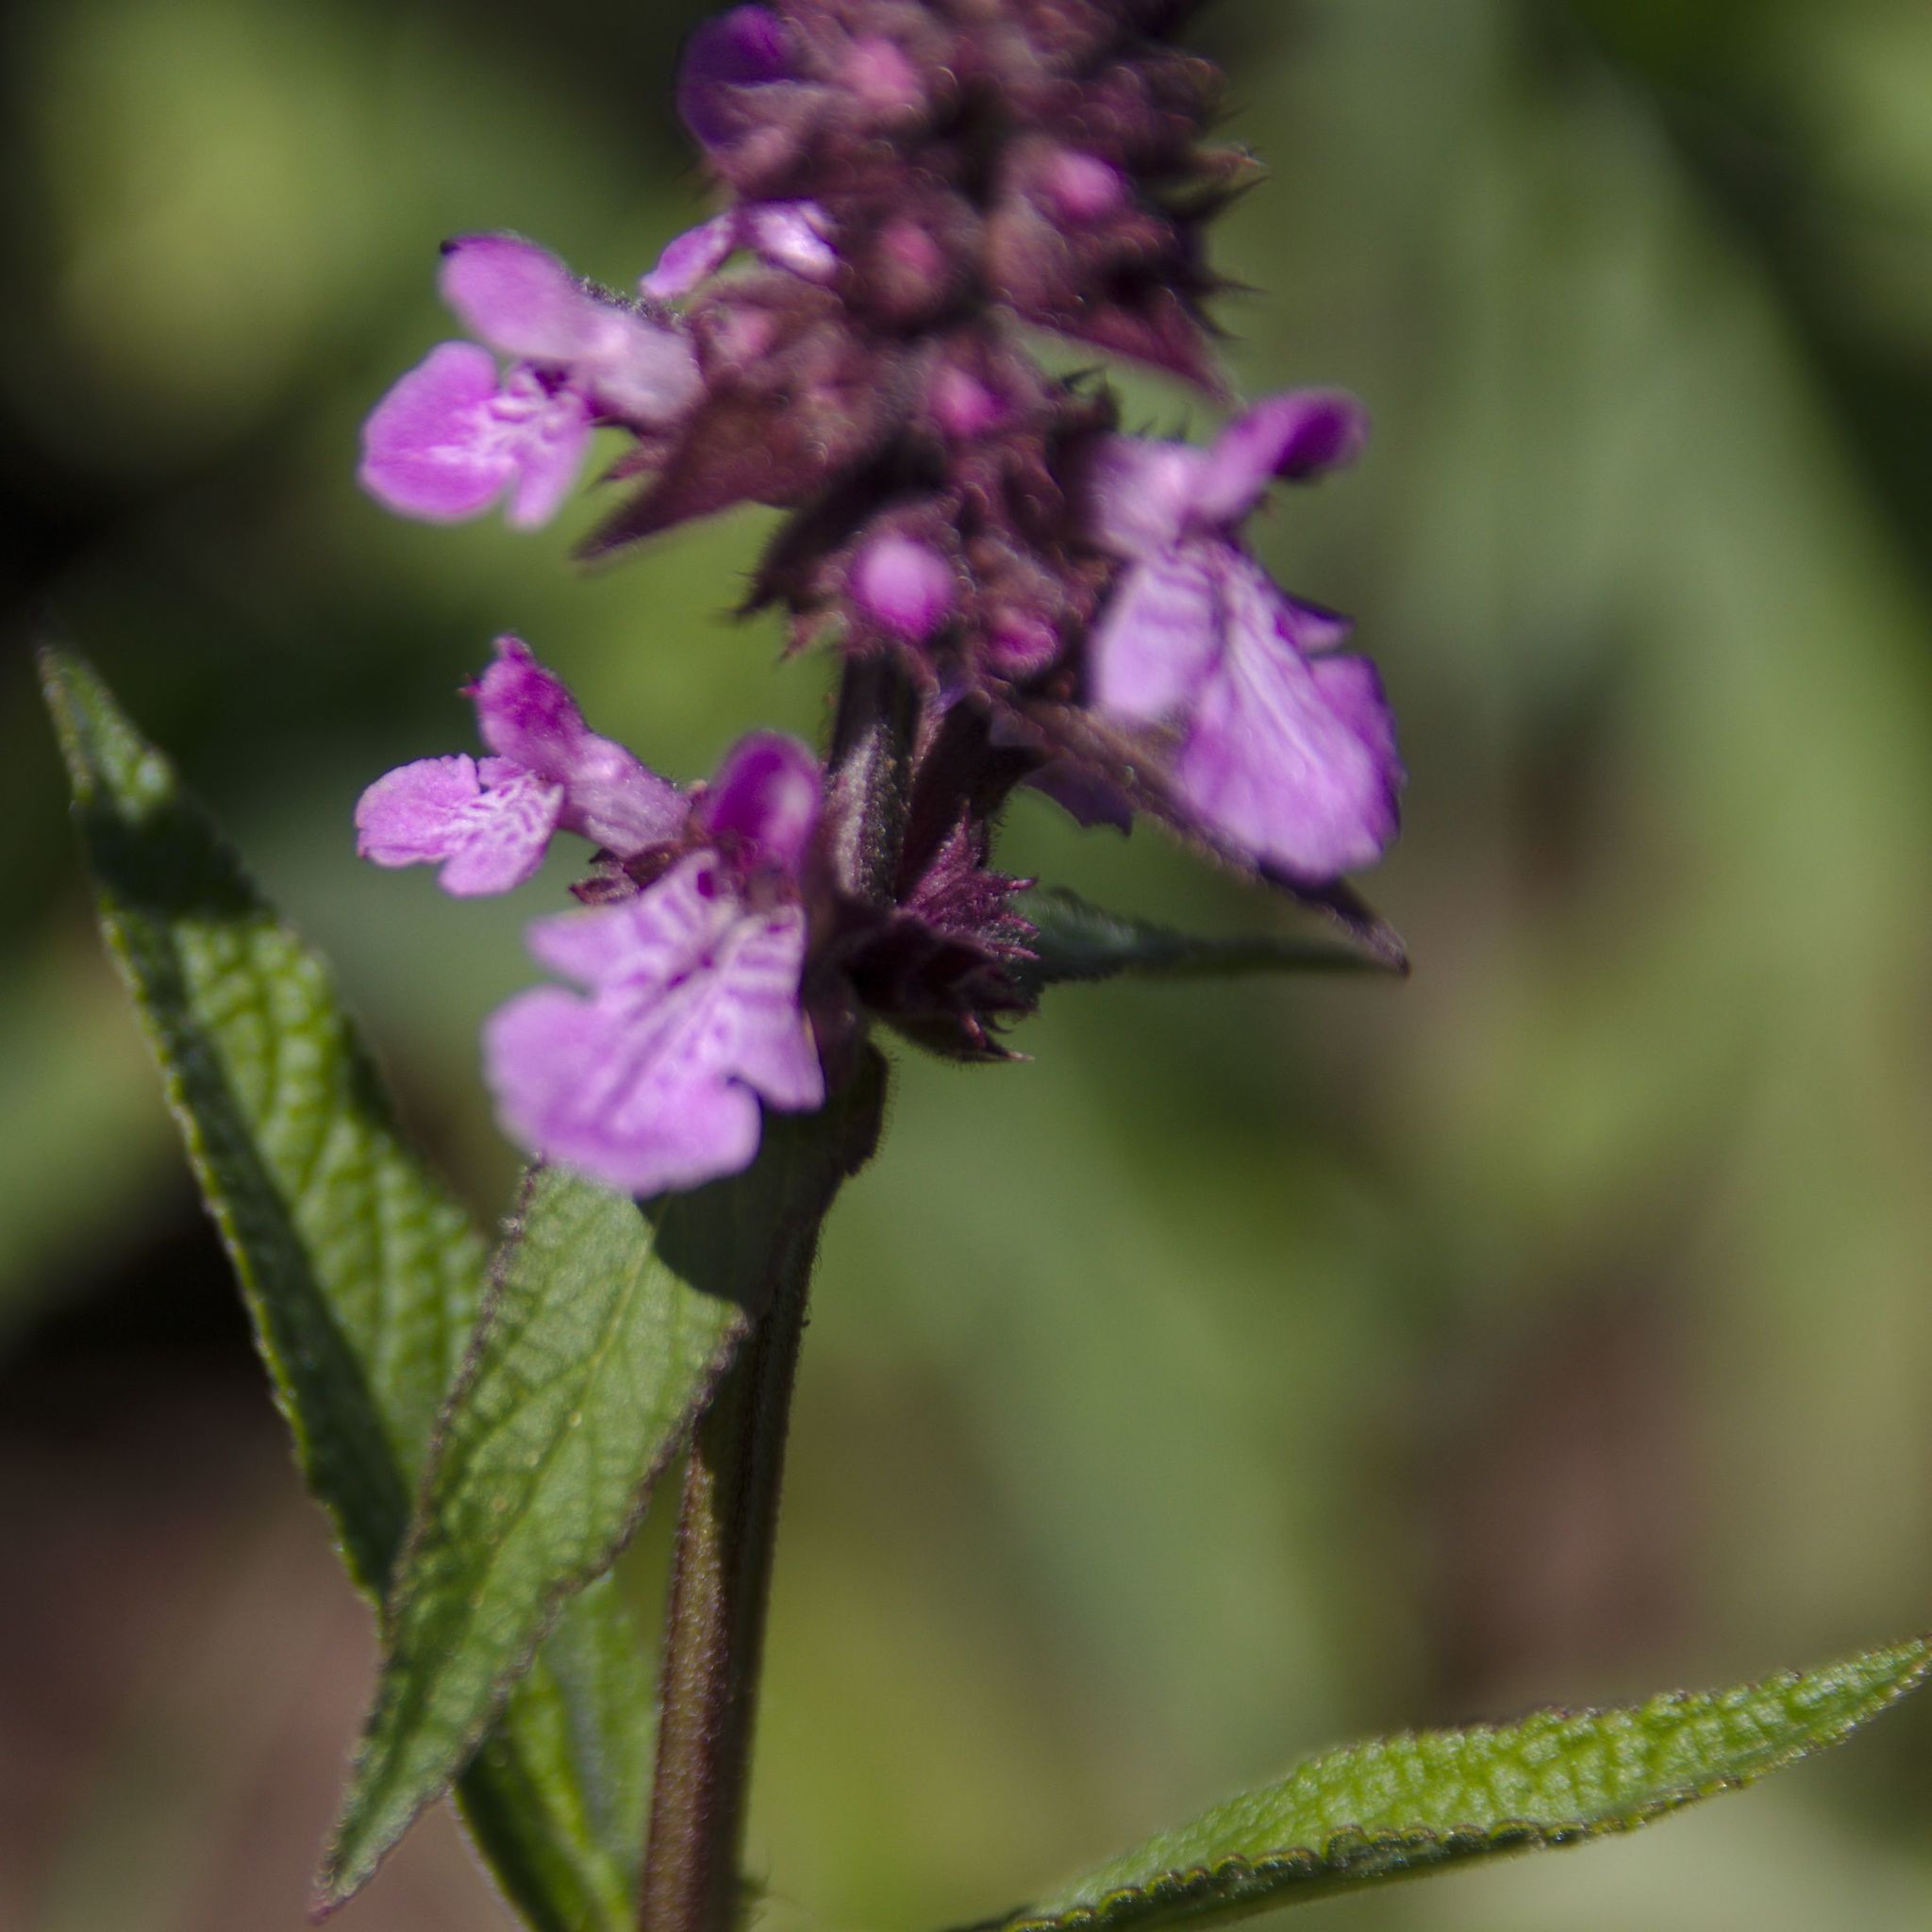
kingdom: Plantae
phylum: Tracheophyta
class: Magnoliopsida
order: Lamiales
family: Lamiaceae
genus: Stachys
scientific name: Stachys palustris
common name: Marsh woundwort
